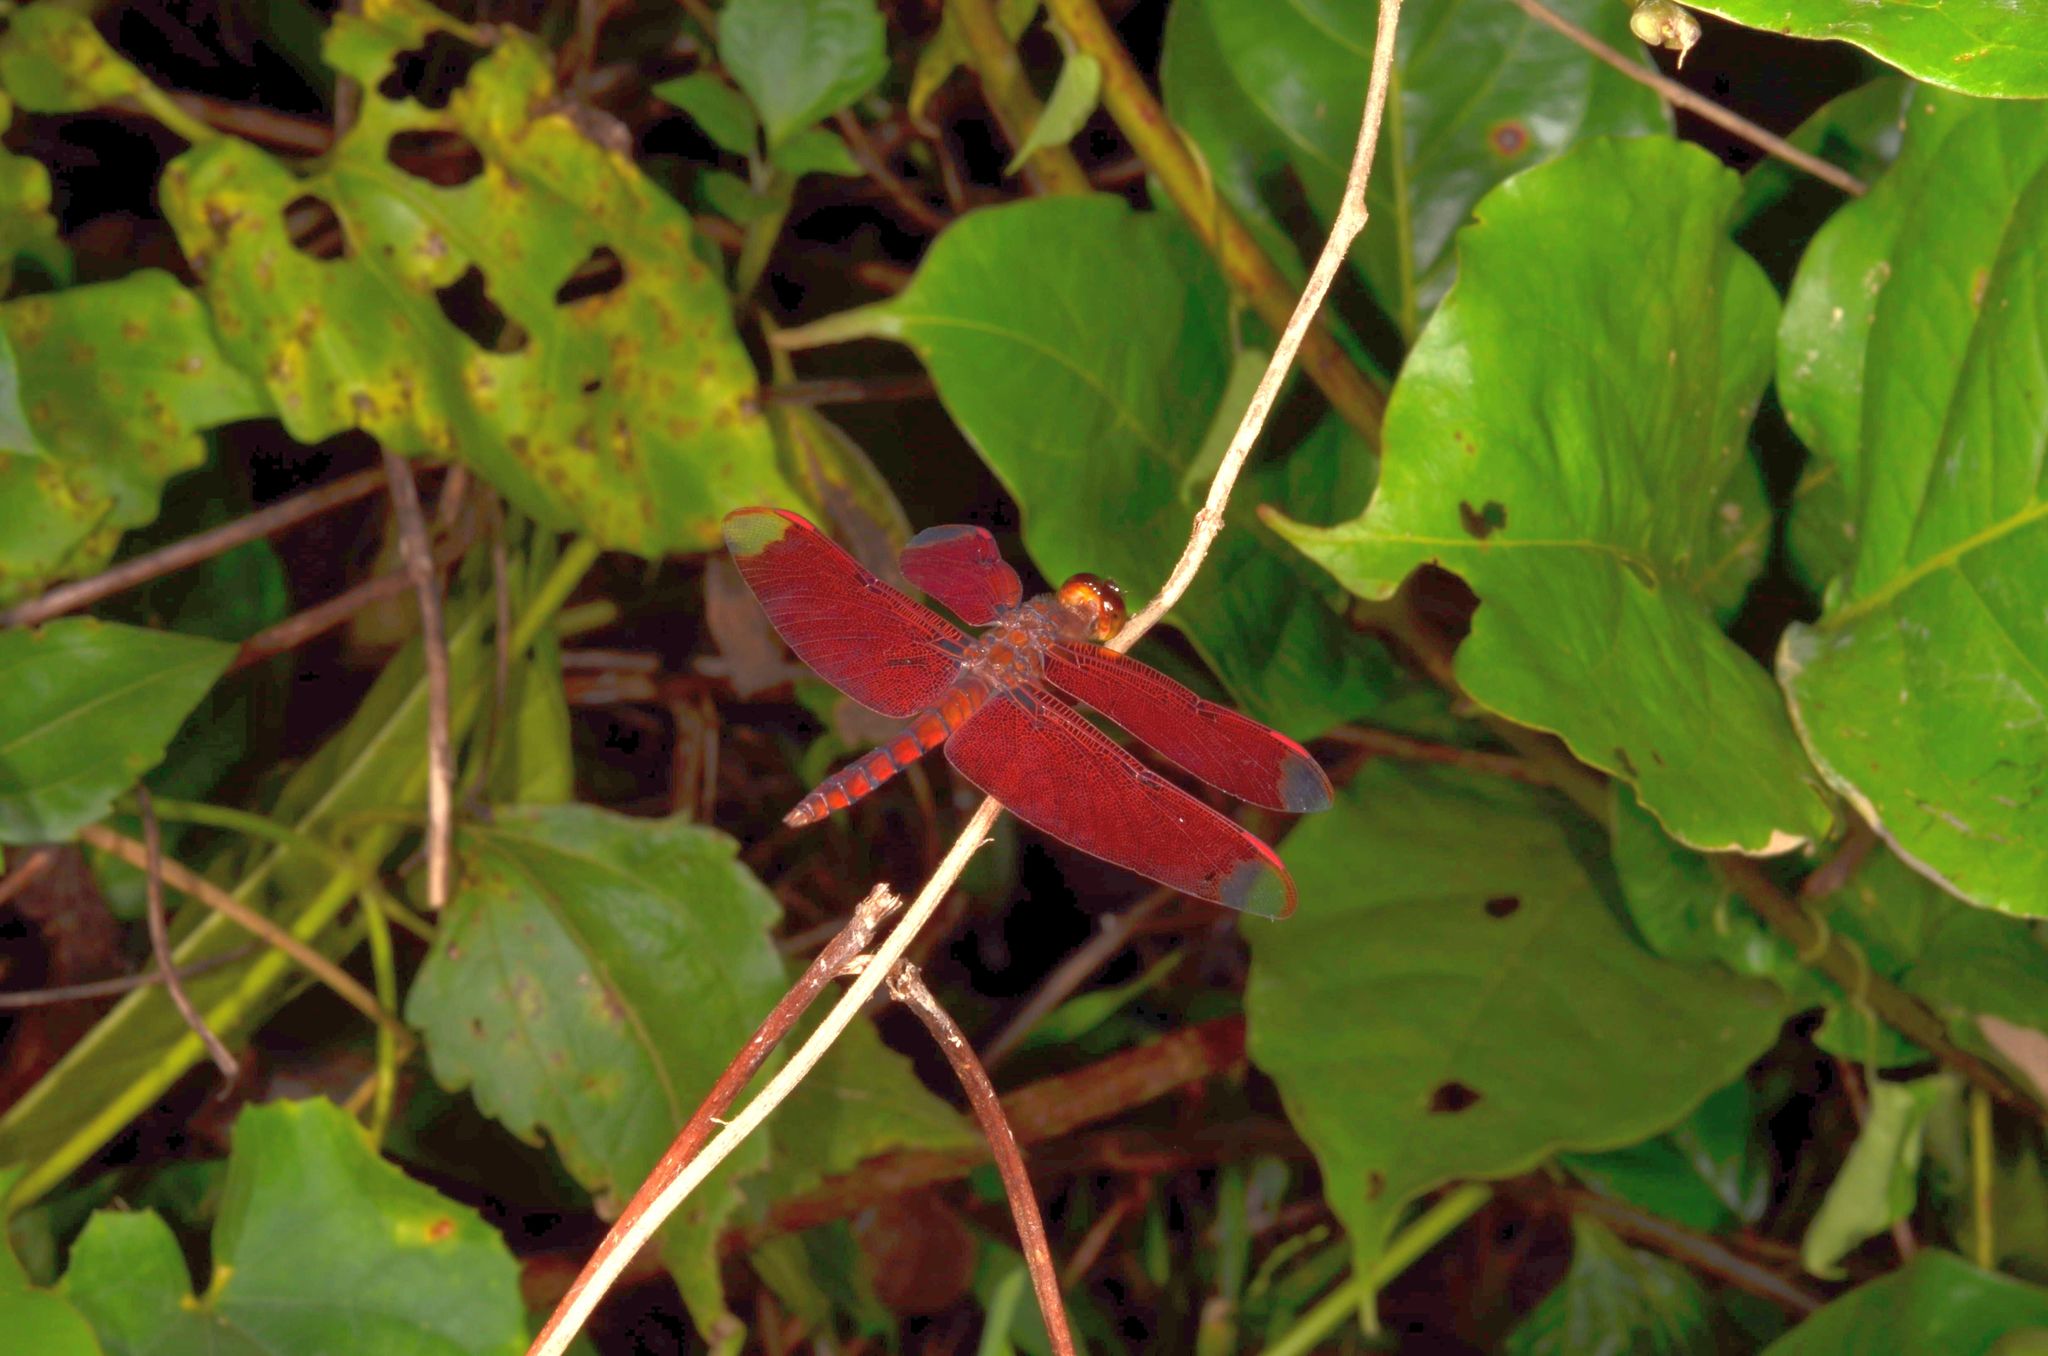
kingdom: Animalia
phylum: Arthropoda
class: Insecta
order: Odonata
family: Libellulidae
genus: Neurothemis
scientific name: Neurothemis fulvia
